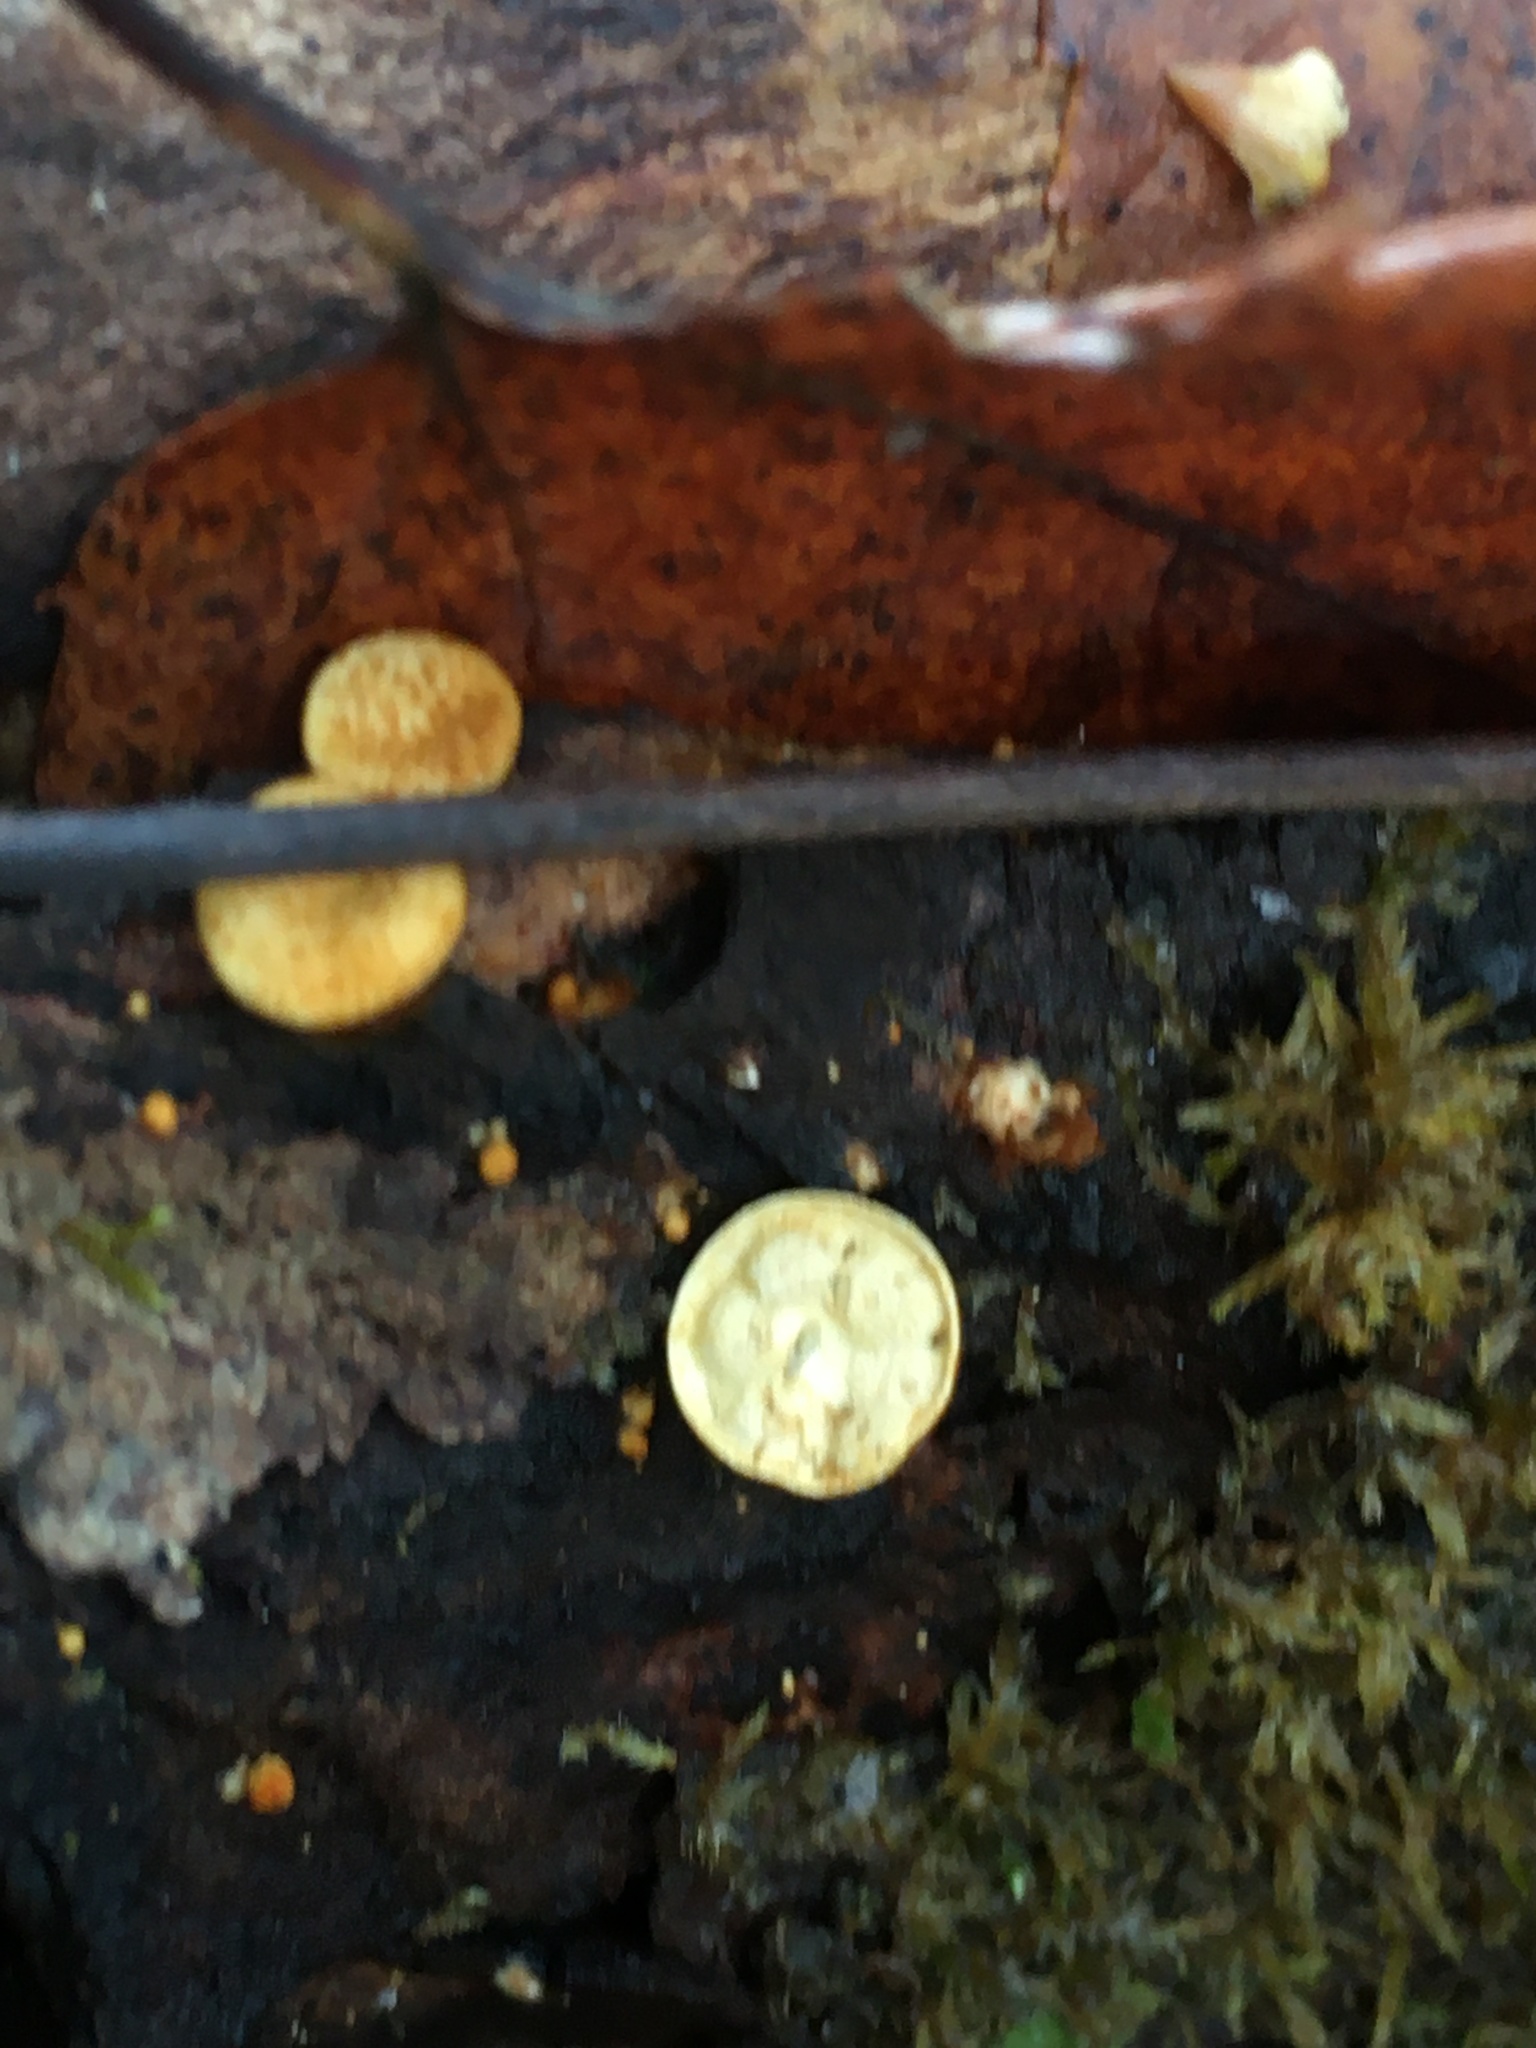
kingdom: Fungi
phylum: Basidiomycota
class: Agaricomycetes
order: Agaricales
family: Nidulariaceae
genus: Crucibulum
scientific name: Crucibulum laeve
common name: Common bird's nest
